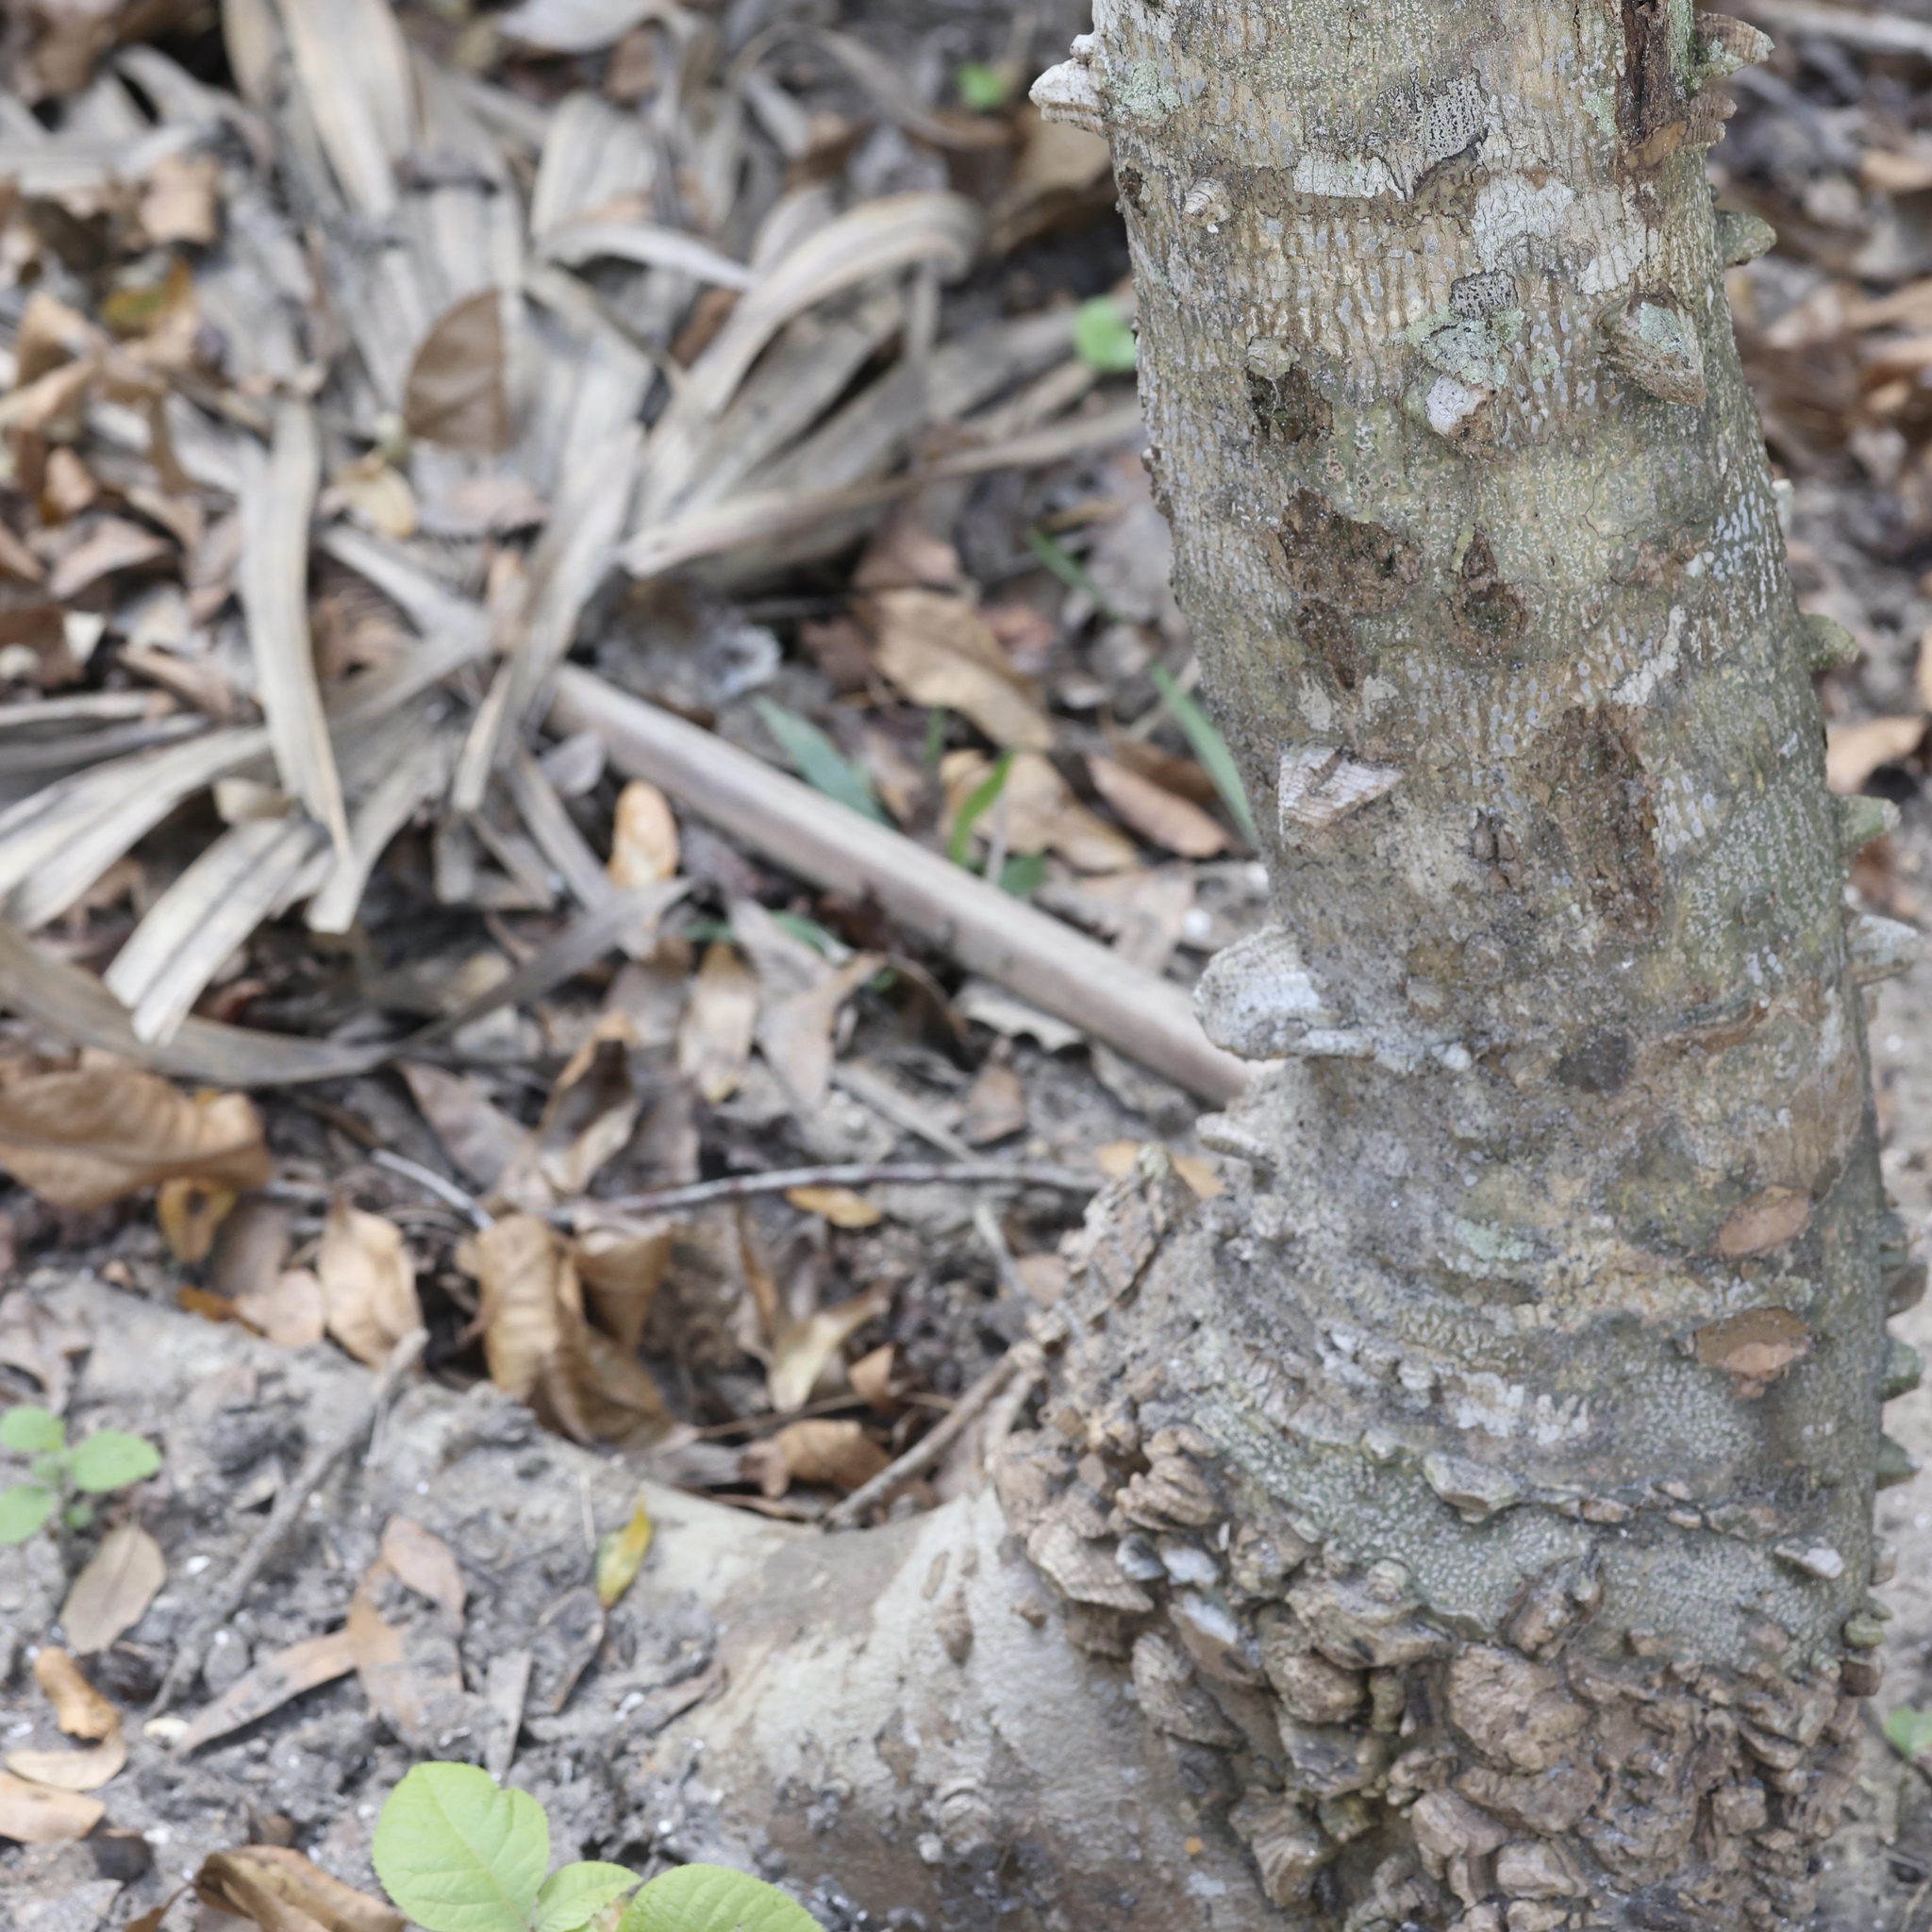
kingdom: Plantae
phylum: Tracheophyta
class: Magnoliopsida
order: Sapindales
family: Rutaceae
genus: Zanthoxylum
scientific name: Zanthoxylum clava-herculis
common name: Hercules'-club
